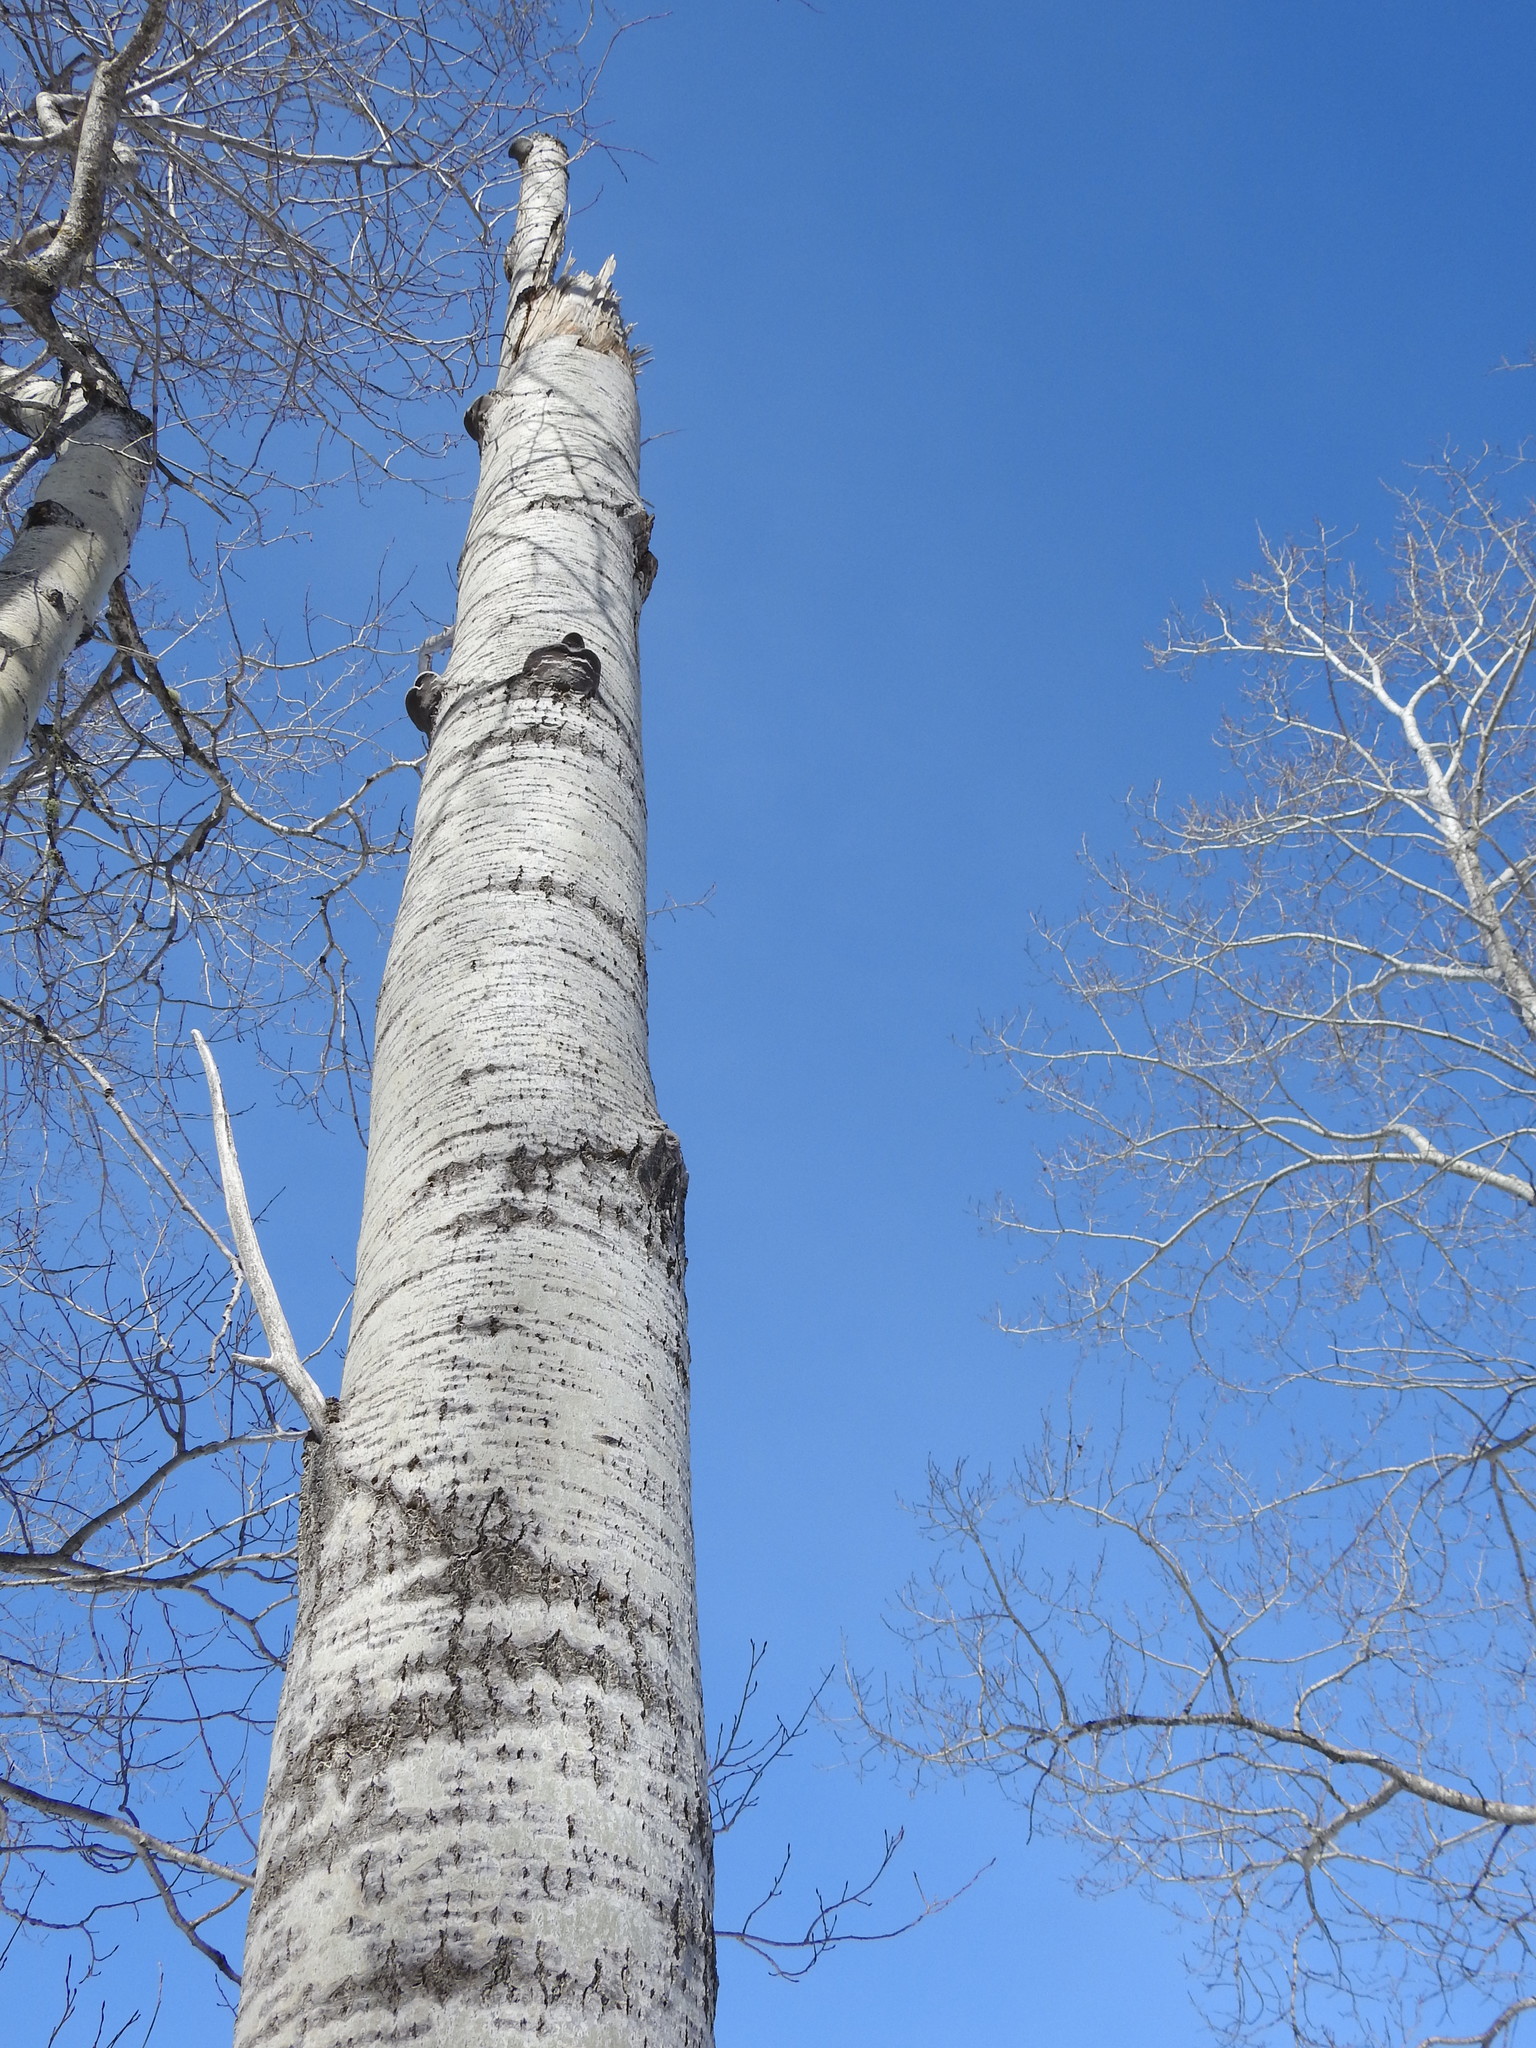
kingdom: Plantae
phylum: Tracheophyta
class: Magnoliopsida
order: Malpighiales
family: Salicaceae
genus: Populus
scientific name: Populus tremuloides
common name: Quaking aspen
